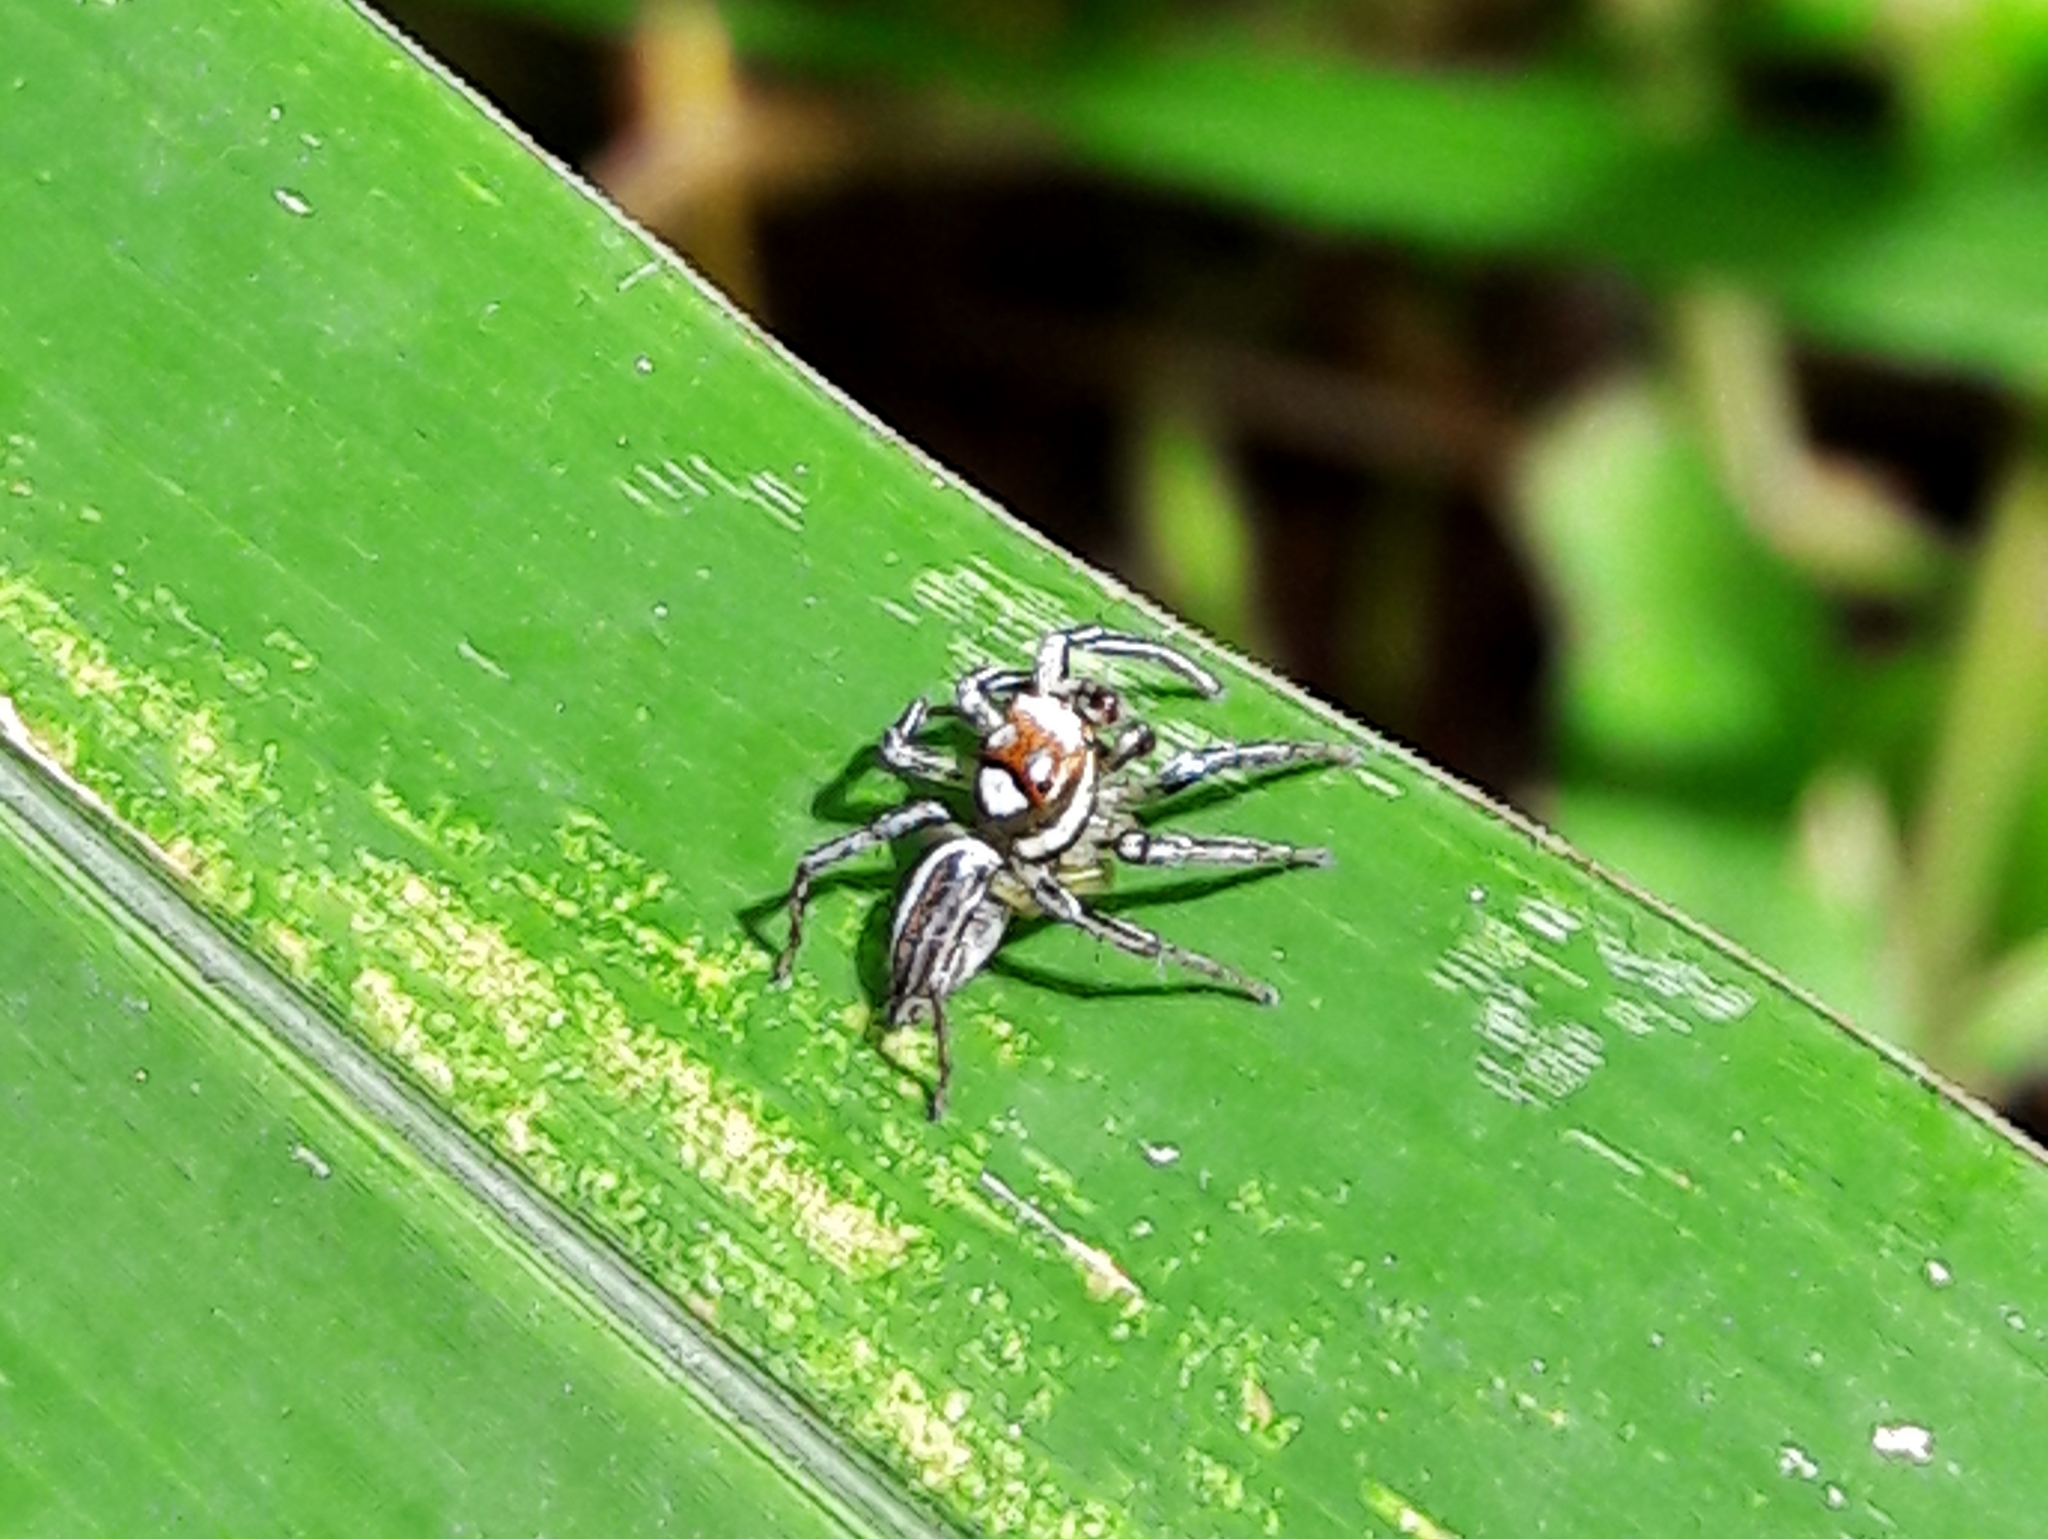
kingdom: Animalia
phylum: Arthropoda
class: Arachnida
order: Araneae
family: Salticidae
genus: Chira
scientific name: Chira simoni
